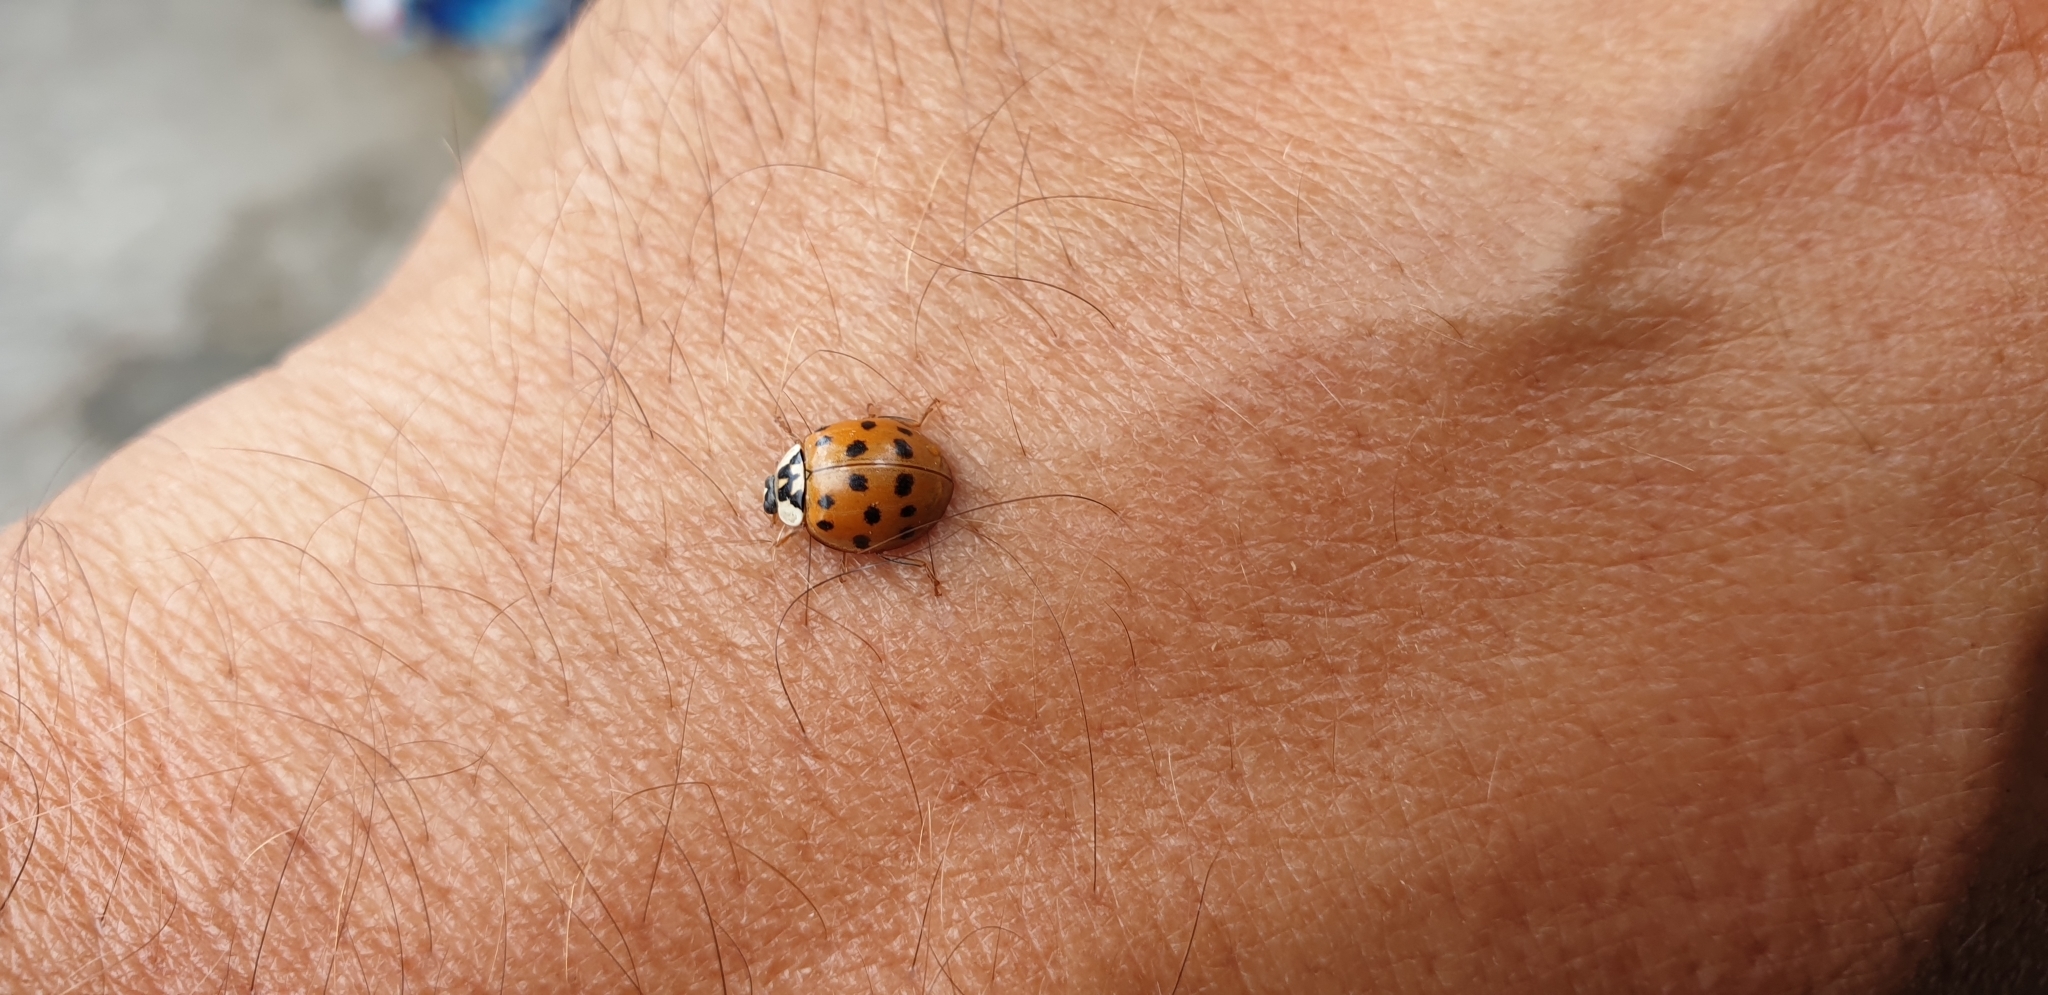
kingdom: Animalia
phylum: Arthropoda
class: Insecta
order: Coleoptera
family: Coccinellidae
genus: Harmonia
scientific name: Harmonia axyridis
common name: Harlequin ladybird
